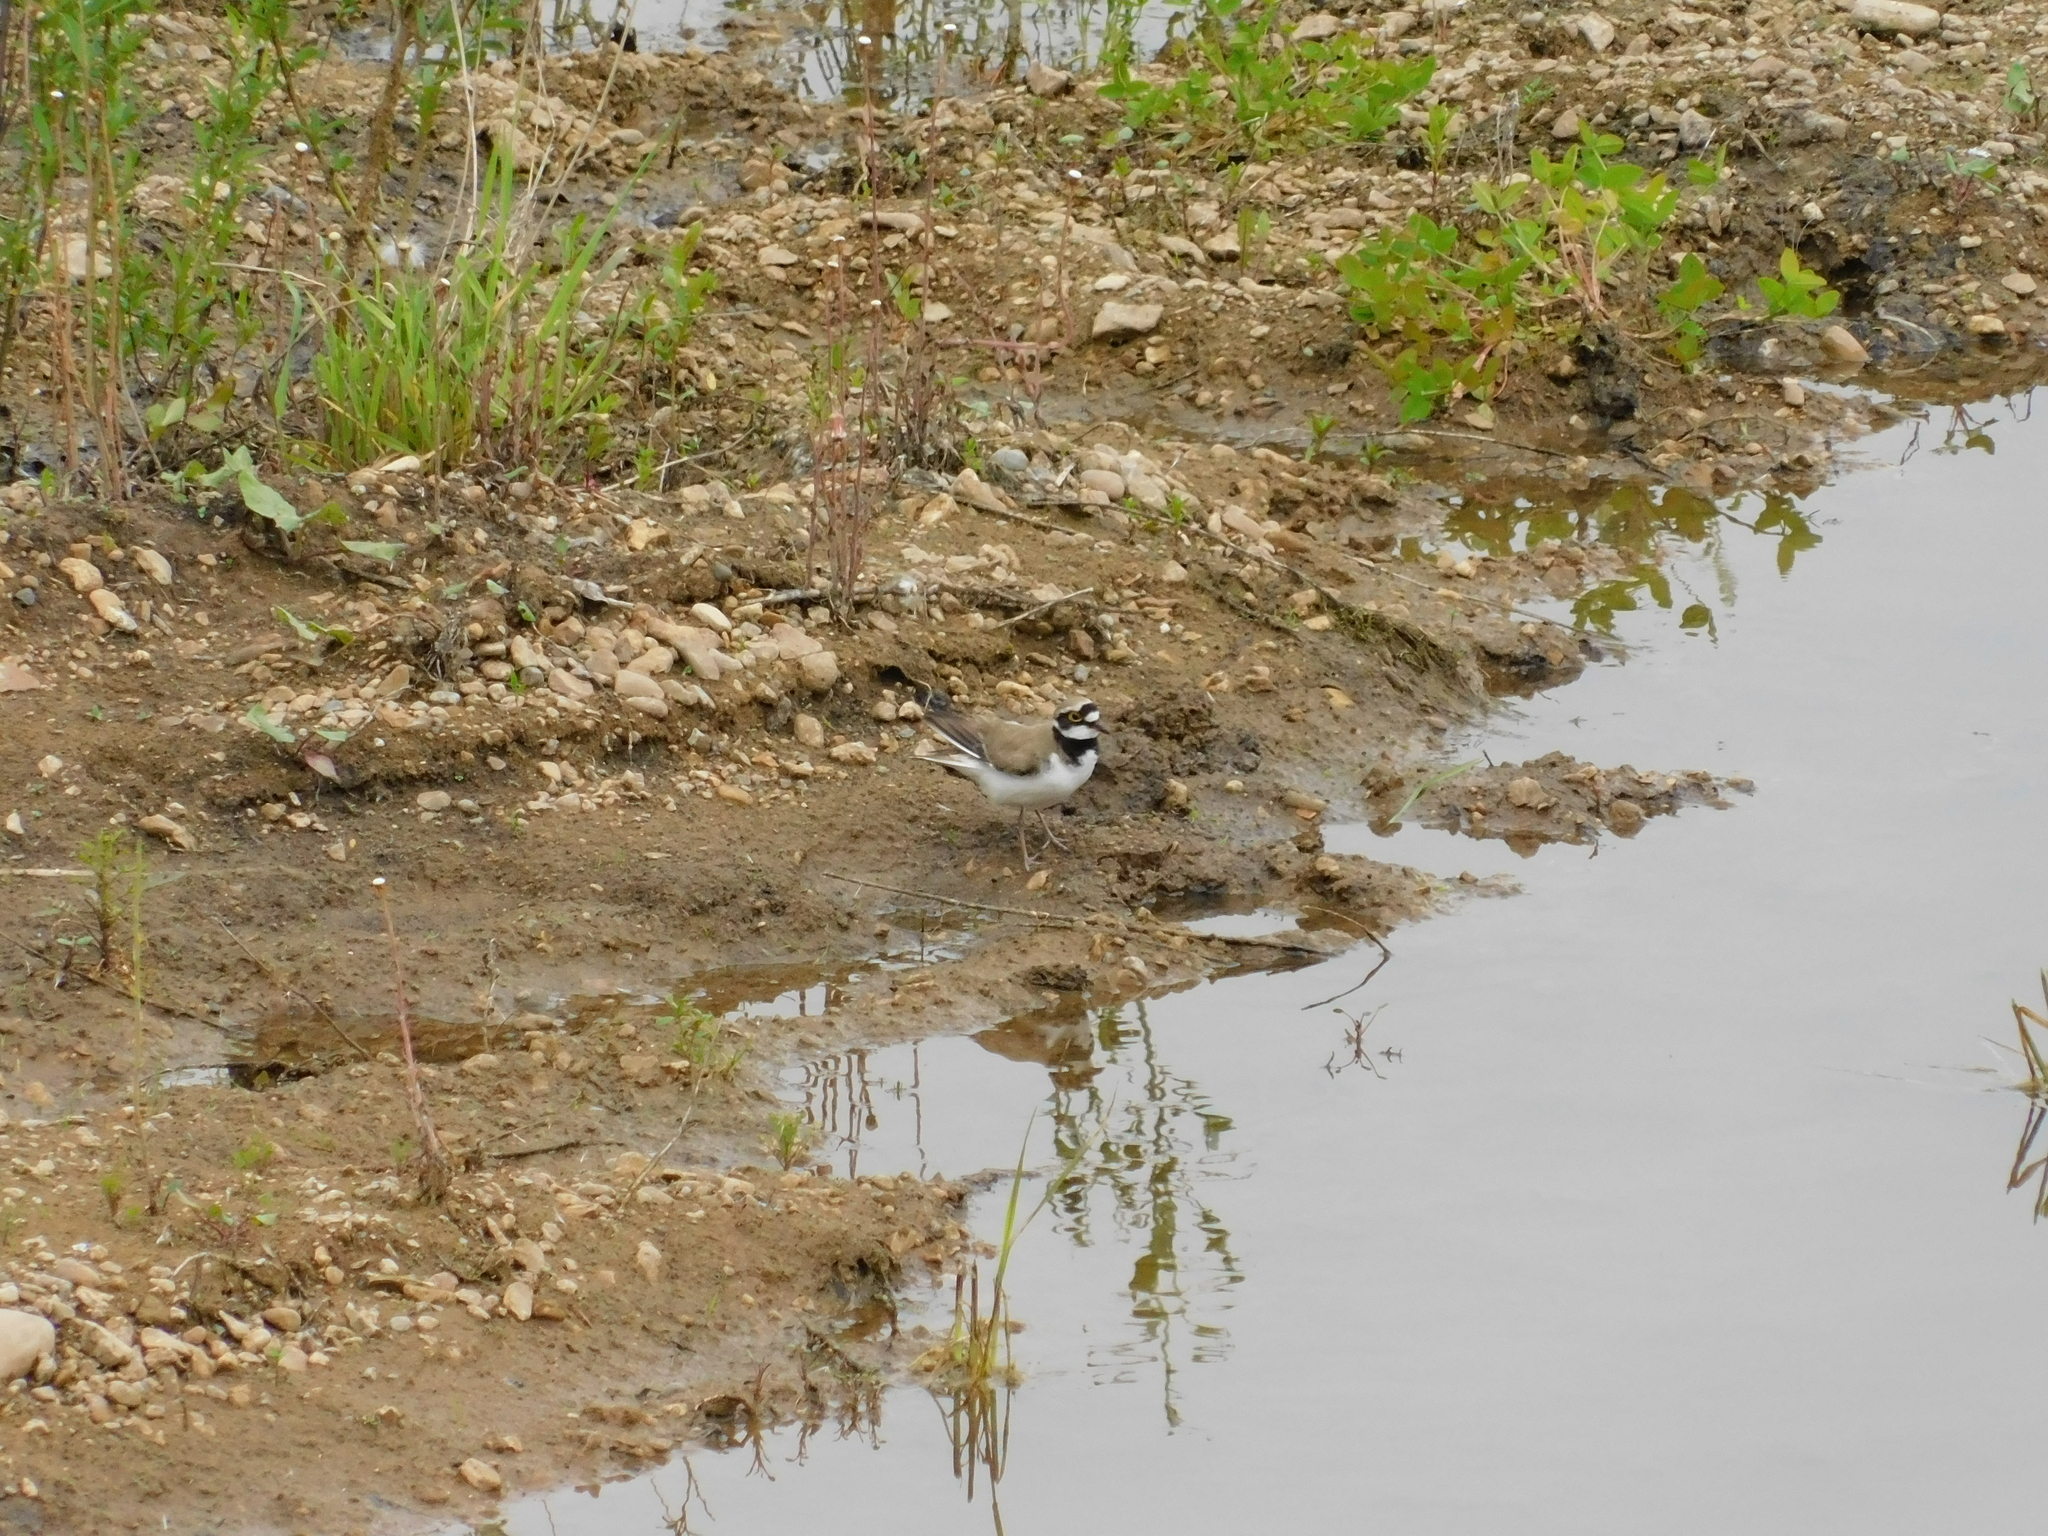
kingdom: Animalia
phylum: Chordata
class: Aves
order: Charadriiformes
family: Charadriidae
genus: Charadrius
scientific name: Charadrius dubius
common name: Little ringed plover
